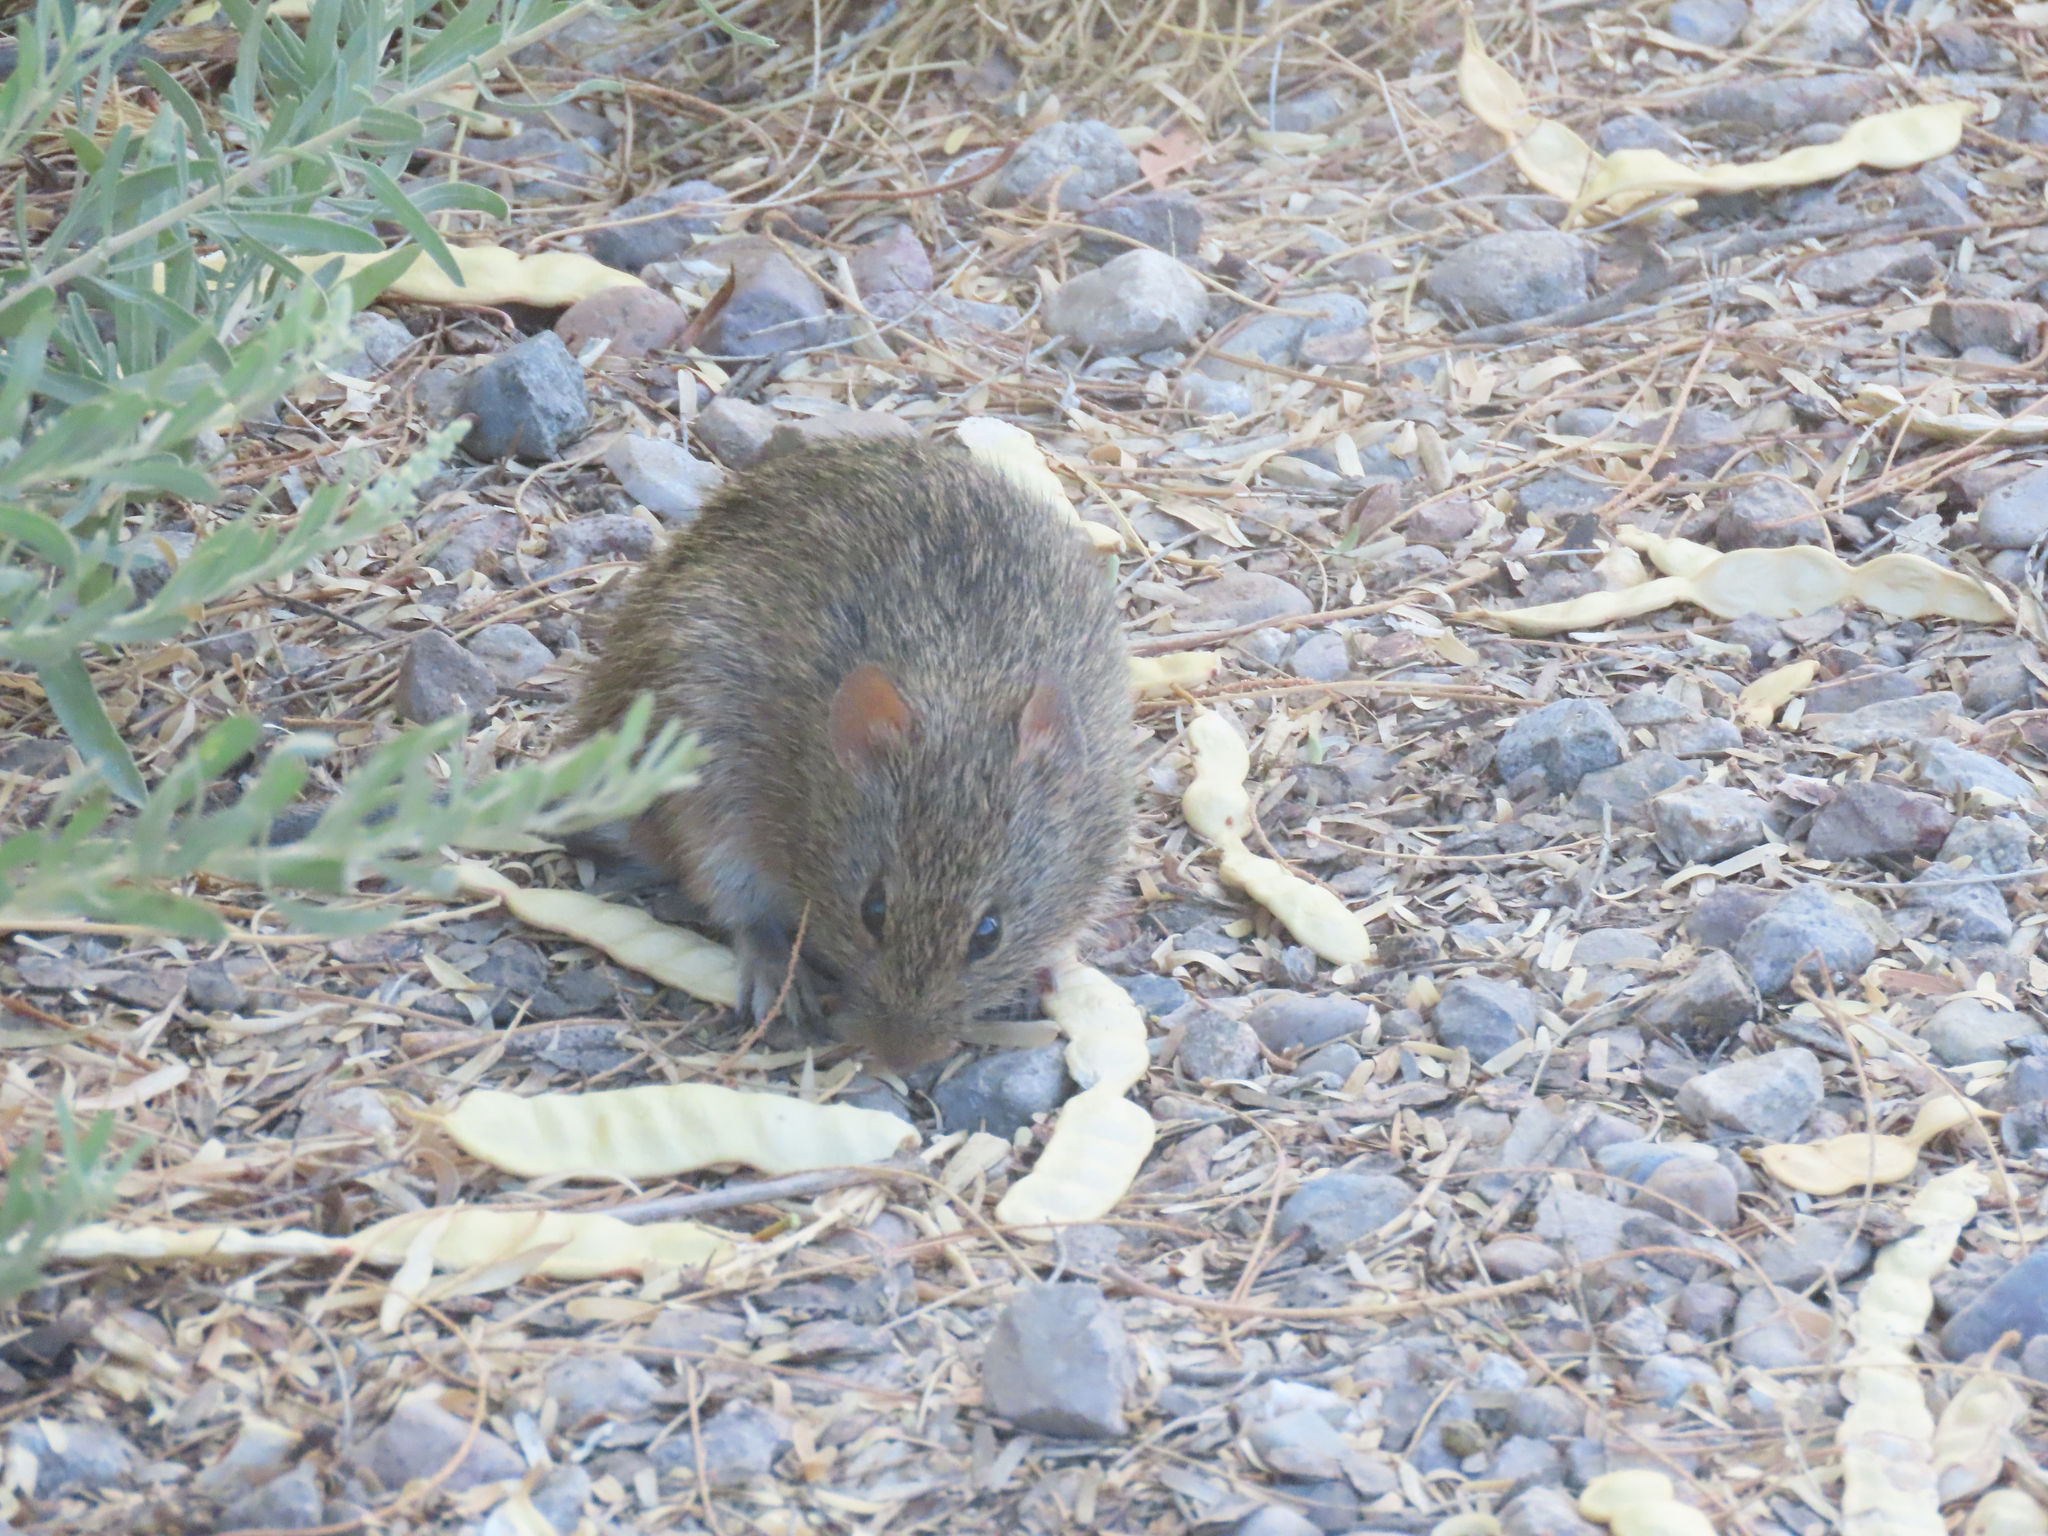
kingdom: Animalia
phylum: Chordata
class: Mammalia
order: Rodentia
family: Cricetidae
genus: Sigmodon
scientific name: Sigmodon arizonae
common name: Arizona cotton rat
